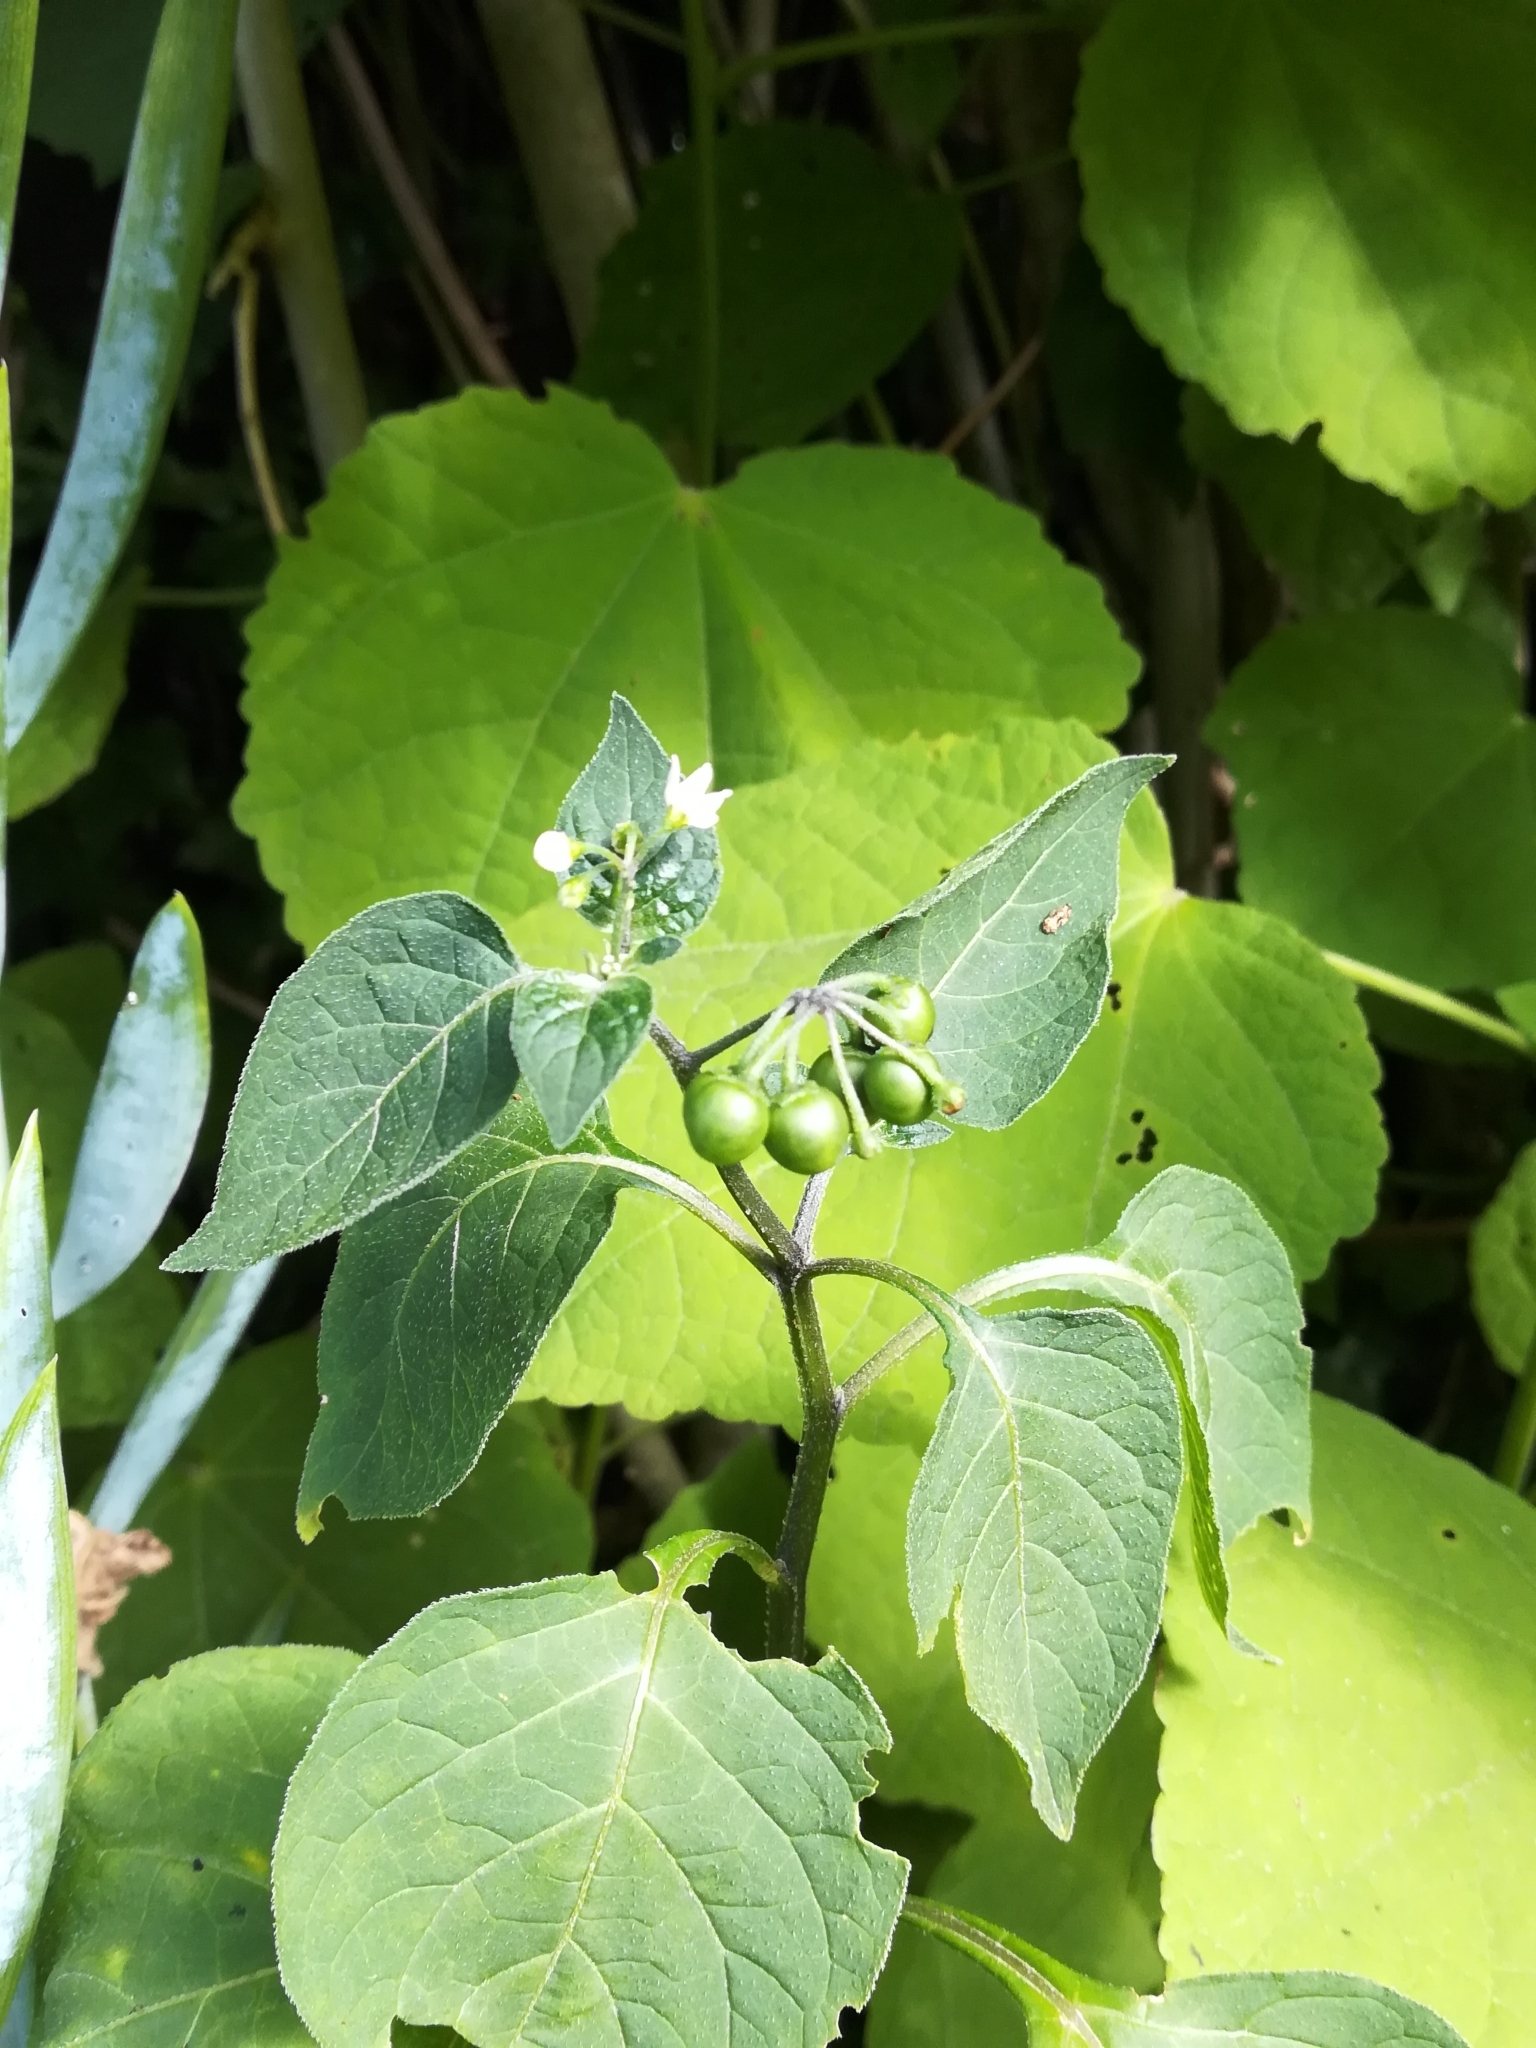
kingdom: Plantae
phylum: Tracheophyta
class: Magnoliopsida
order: Solanales
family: Solanaceae
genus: Solanum
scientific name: Solanum nigrum
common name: Black nightshade
